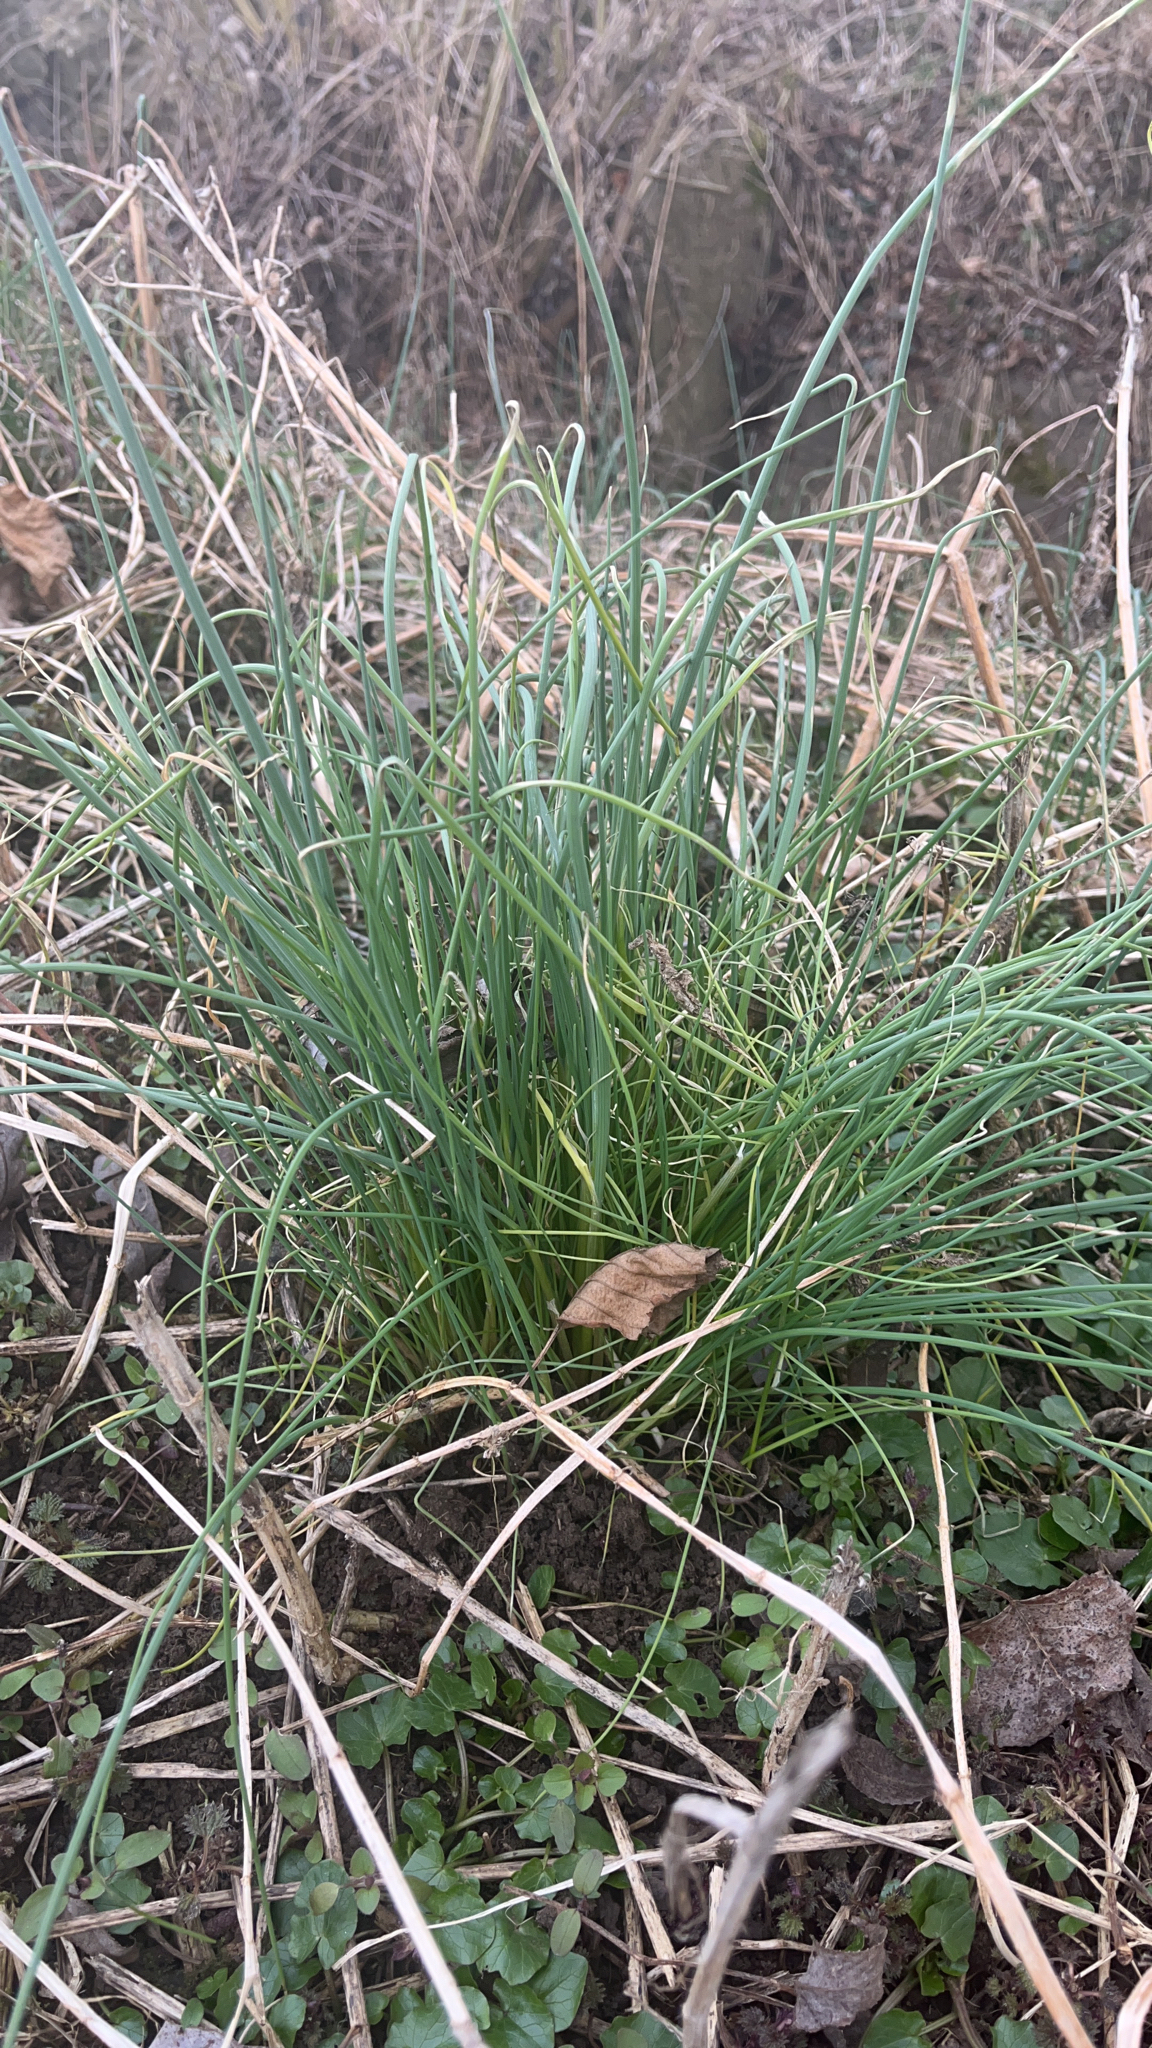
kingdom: Plantae
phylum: Tracheophyta
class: Liliopsida
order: Asparagales
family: Amaryllidaceae
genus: Allium
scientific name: Allium vineale
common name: Crow garlic
